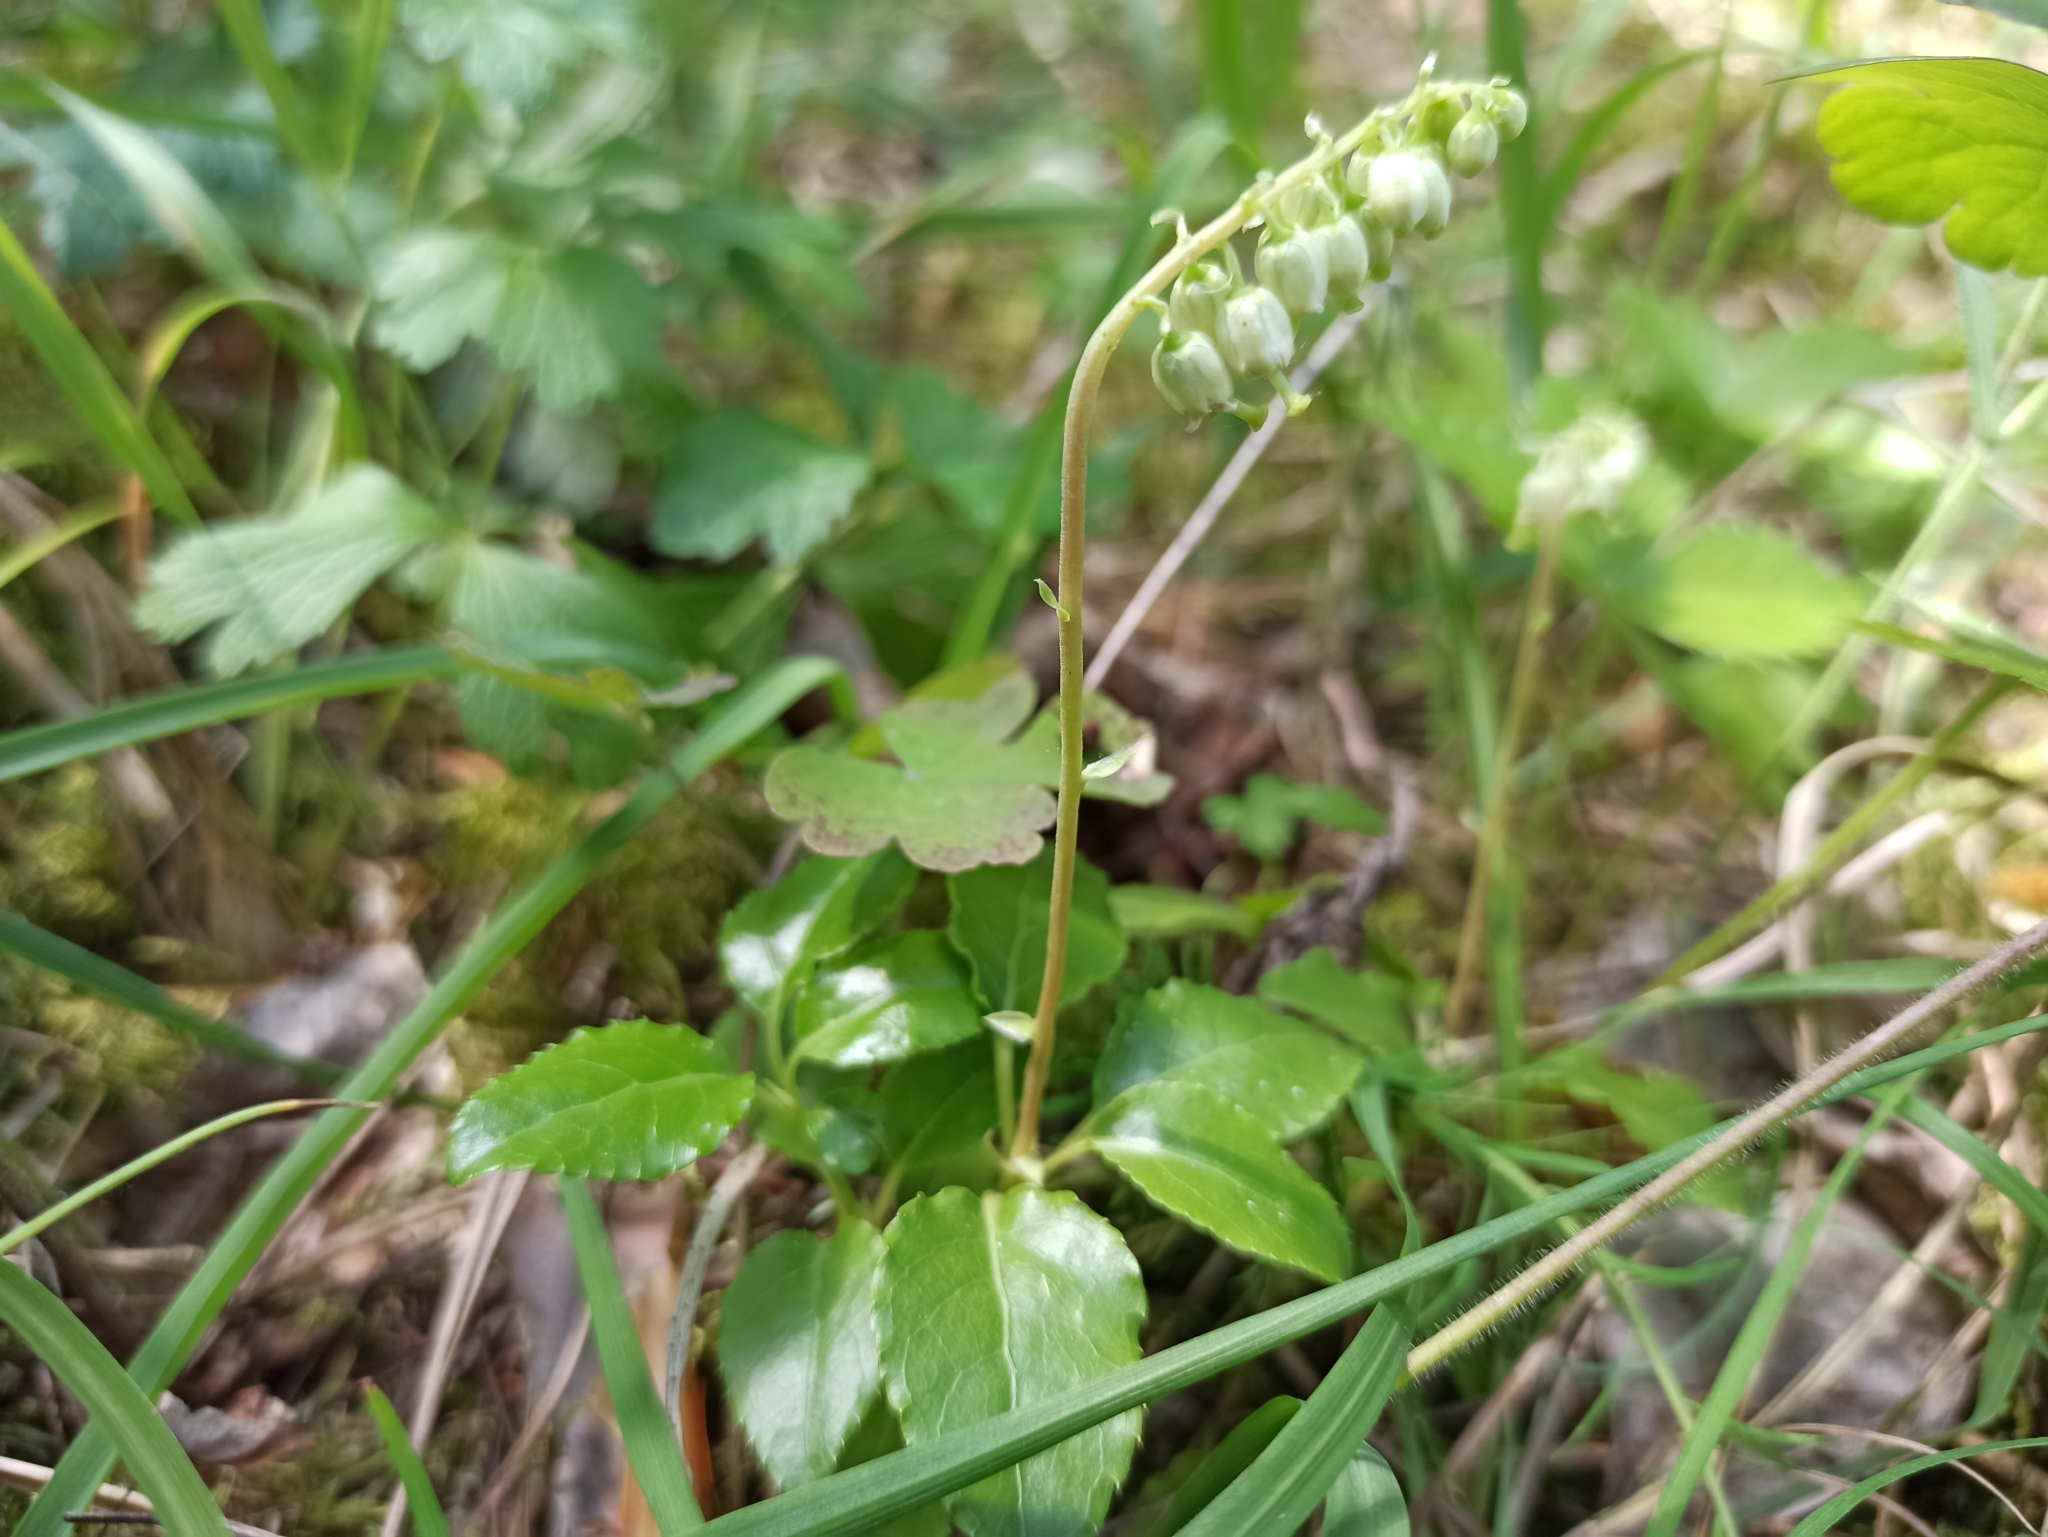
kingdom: Plantae
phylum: Tracheophyta
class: Magnoliopsida
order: Ericales
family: Ericaceae
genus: Orthilia
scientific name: Orthilia secunda
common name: One-sided orthilia
